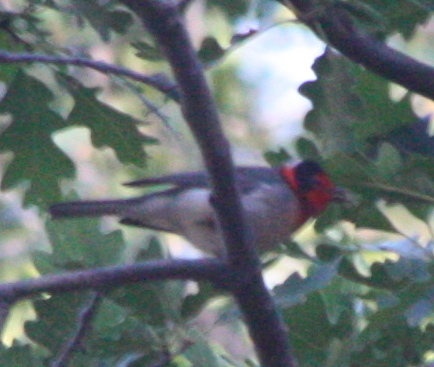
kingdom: Animalia
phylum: Chordata
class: Aves
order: Passeriformes
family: Parulidae
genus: Cardellina
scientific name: Cardellina rubrifrons
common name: Red-faced warbler
